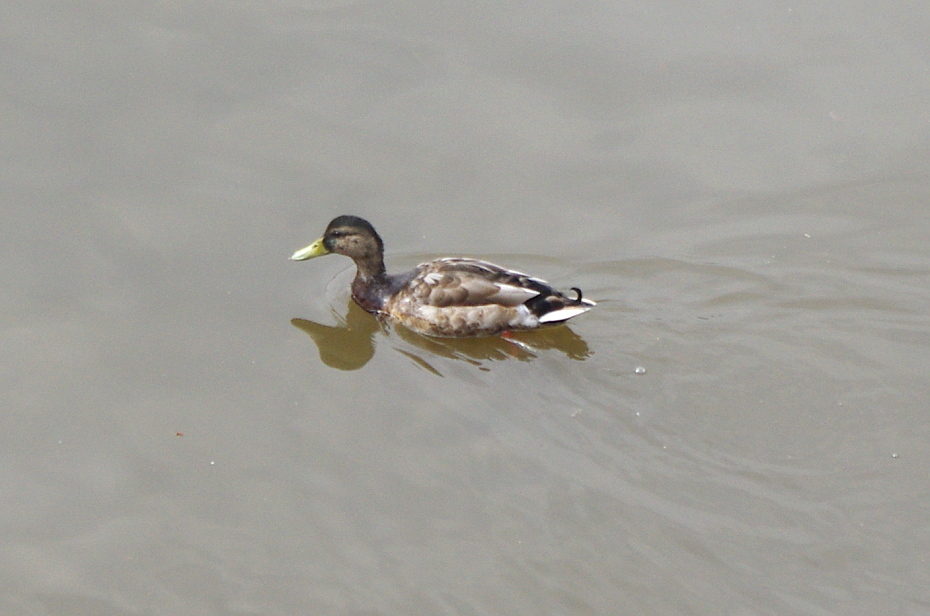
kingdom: Animalia
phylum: Chordata
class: Aves
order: Anseriformes
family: Anatidae
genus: Anas
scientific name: Anas platyrhynchos
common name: Mallard
